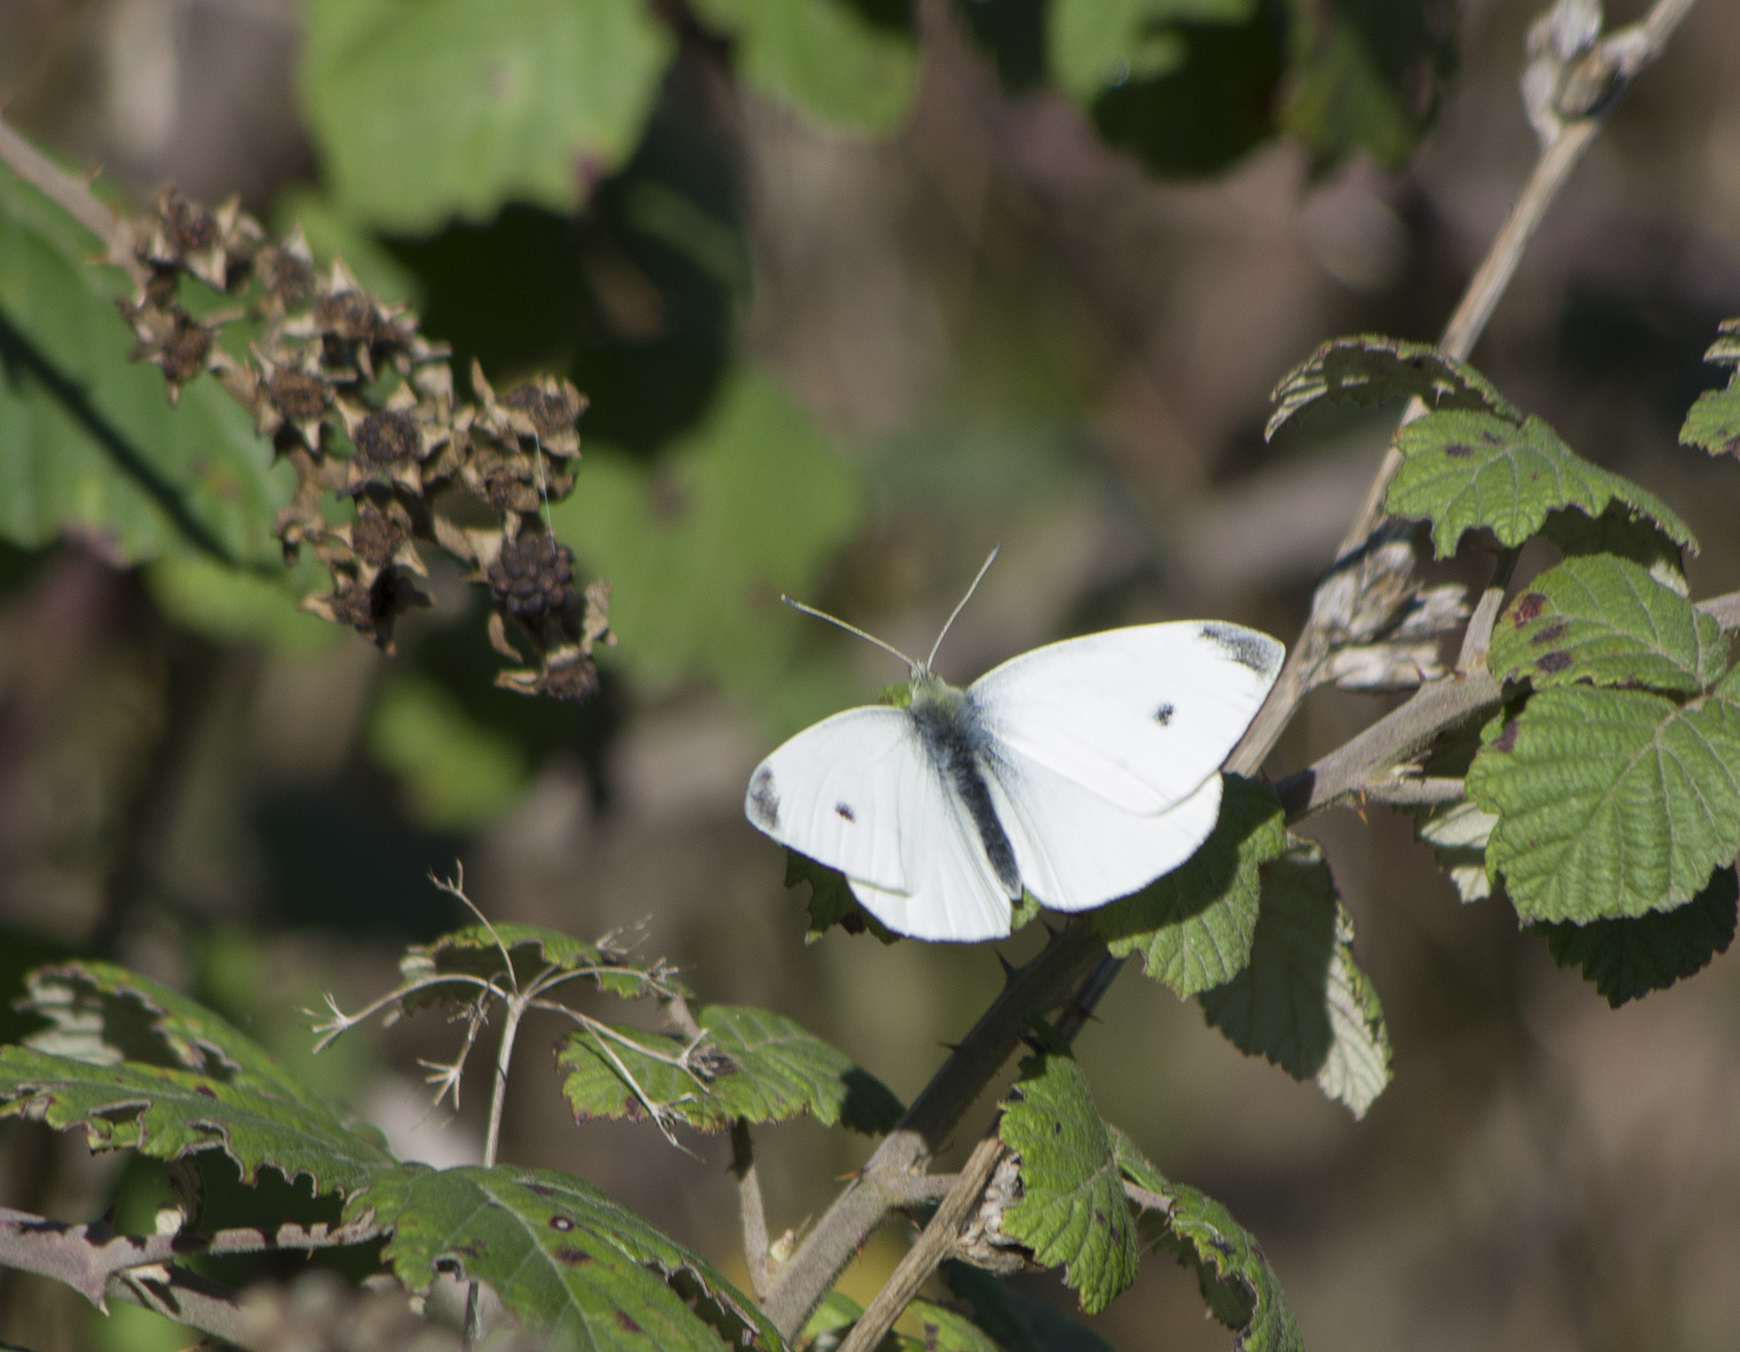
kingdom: Animalia
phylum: Arthropoda
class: Insecta
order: Lepidoptera
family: Pieridae
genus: Pieris
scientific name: Pieris rapae
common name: Small white
